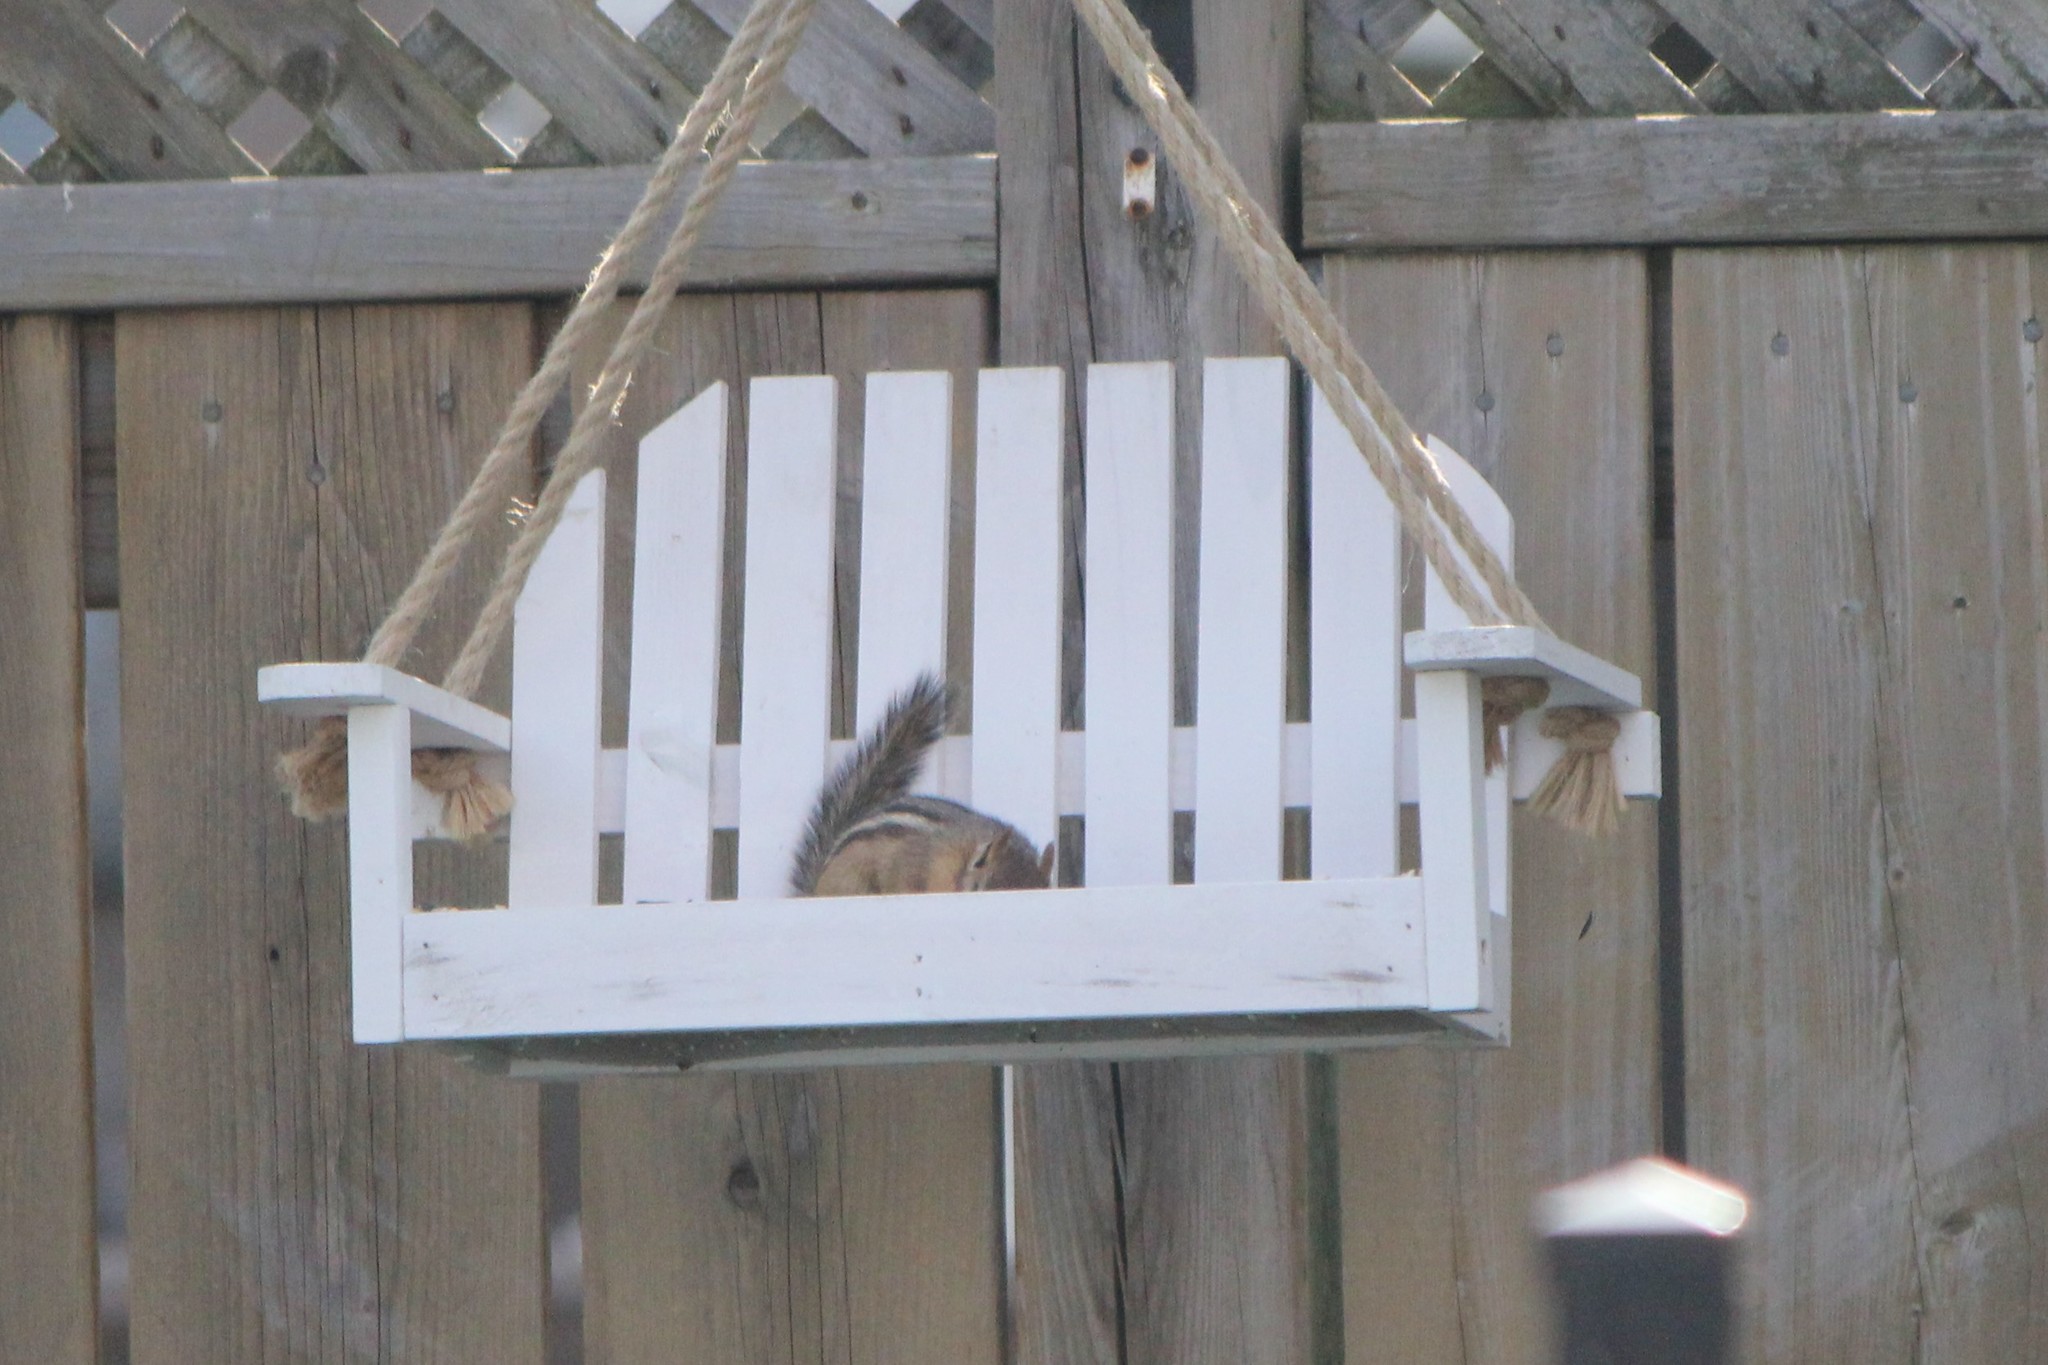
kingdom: Animalia
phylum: Chordata
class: Mammalia
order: Rodentia
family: Sciuridae
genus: Tamias
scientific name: Tamias striatus
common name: Eastern chipmunk
